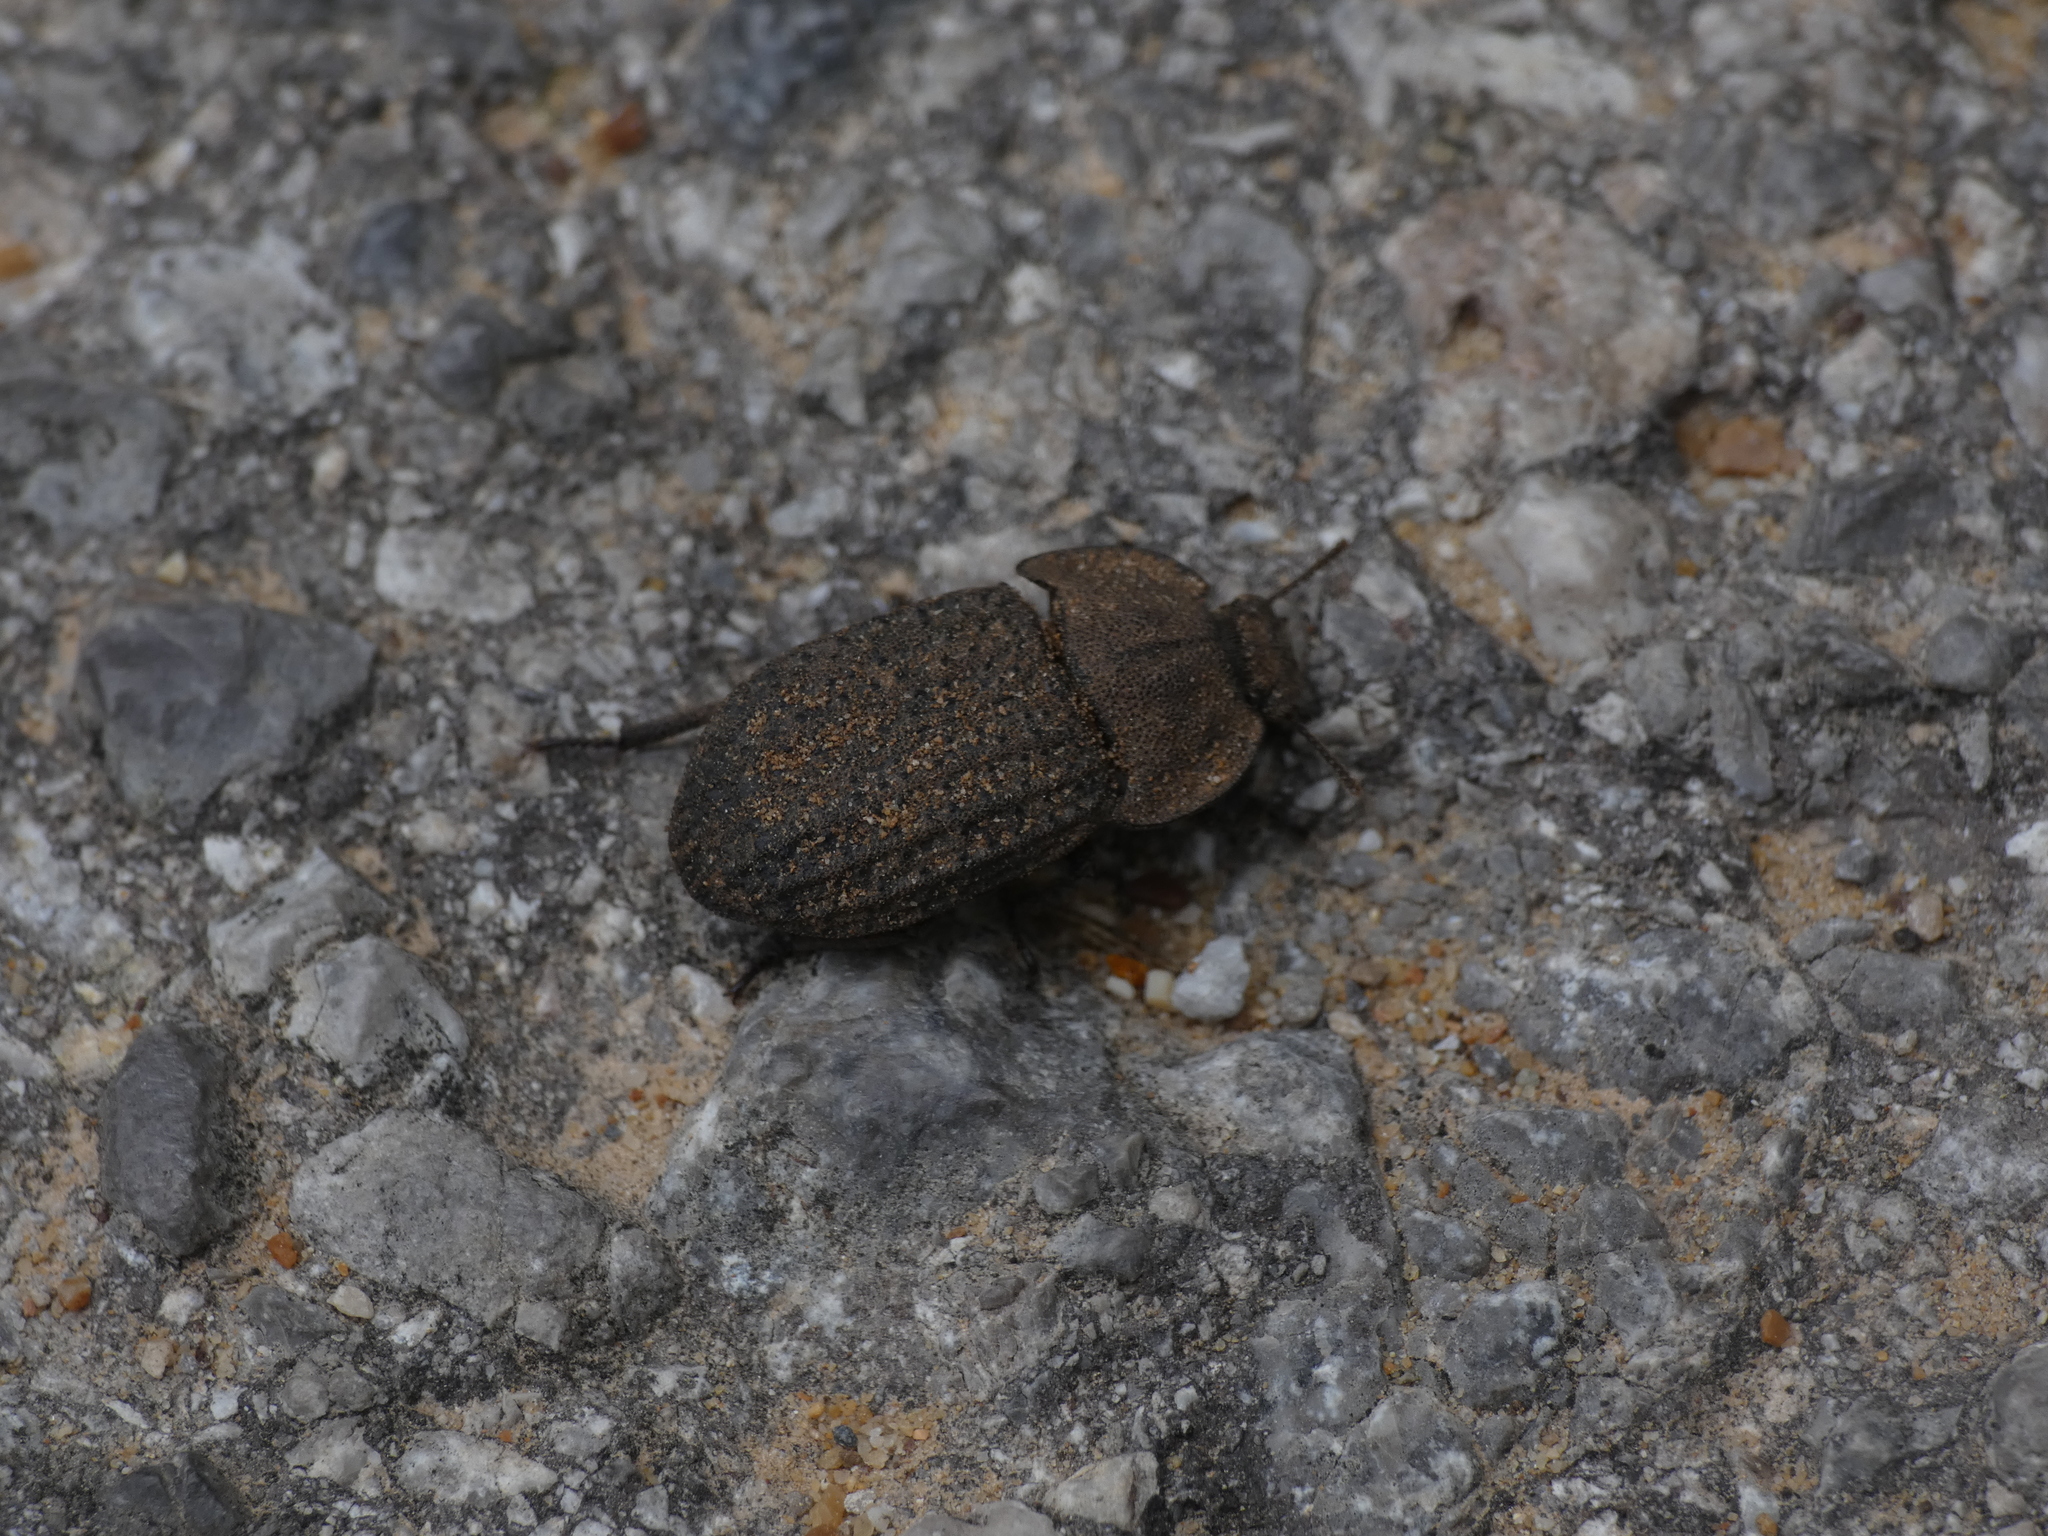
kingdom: Animalia
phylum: Arthropoda
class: Insecta
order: Coleoptera
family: Tenebrionidae
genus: Opatrum
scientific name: Opatrum sabulosum
